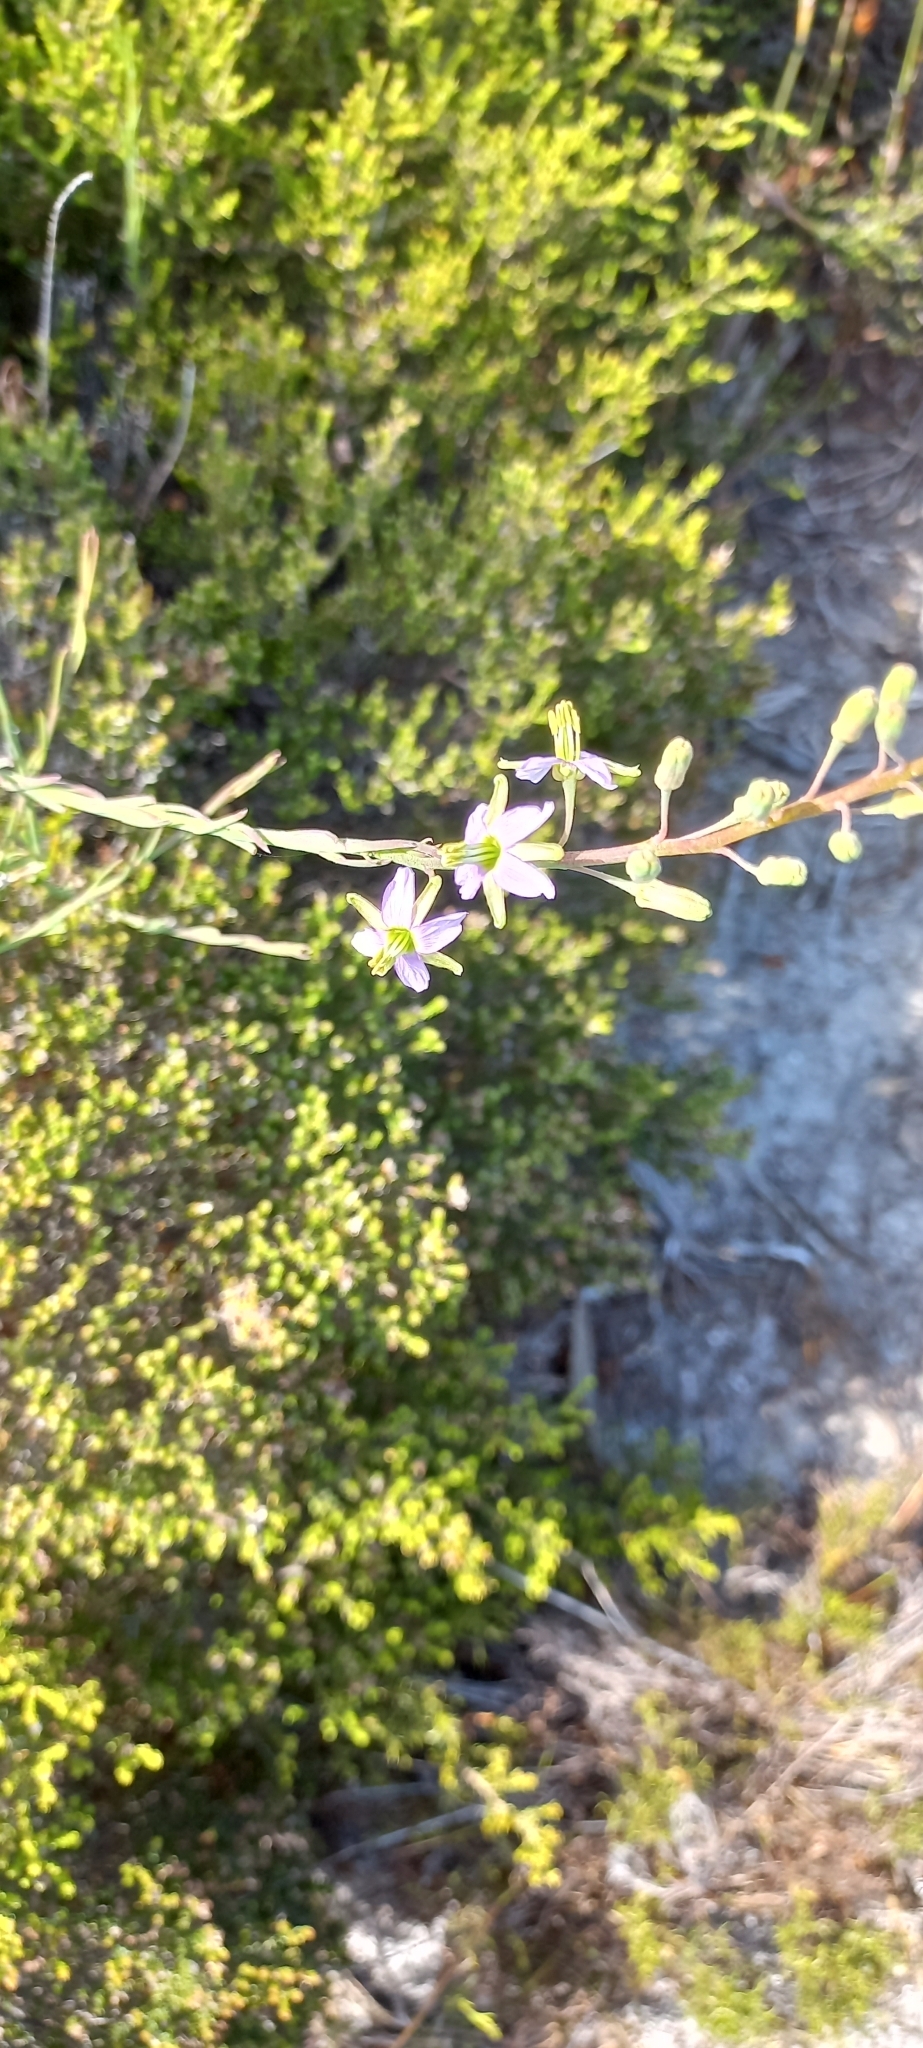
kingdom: Plantae
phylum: Tracheophyta
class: Magnoliopsida
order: Brassicales
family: Brassicaceae
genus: Heliophila
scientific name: Heliophila linearis
